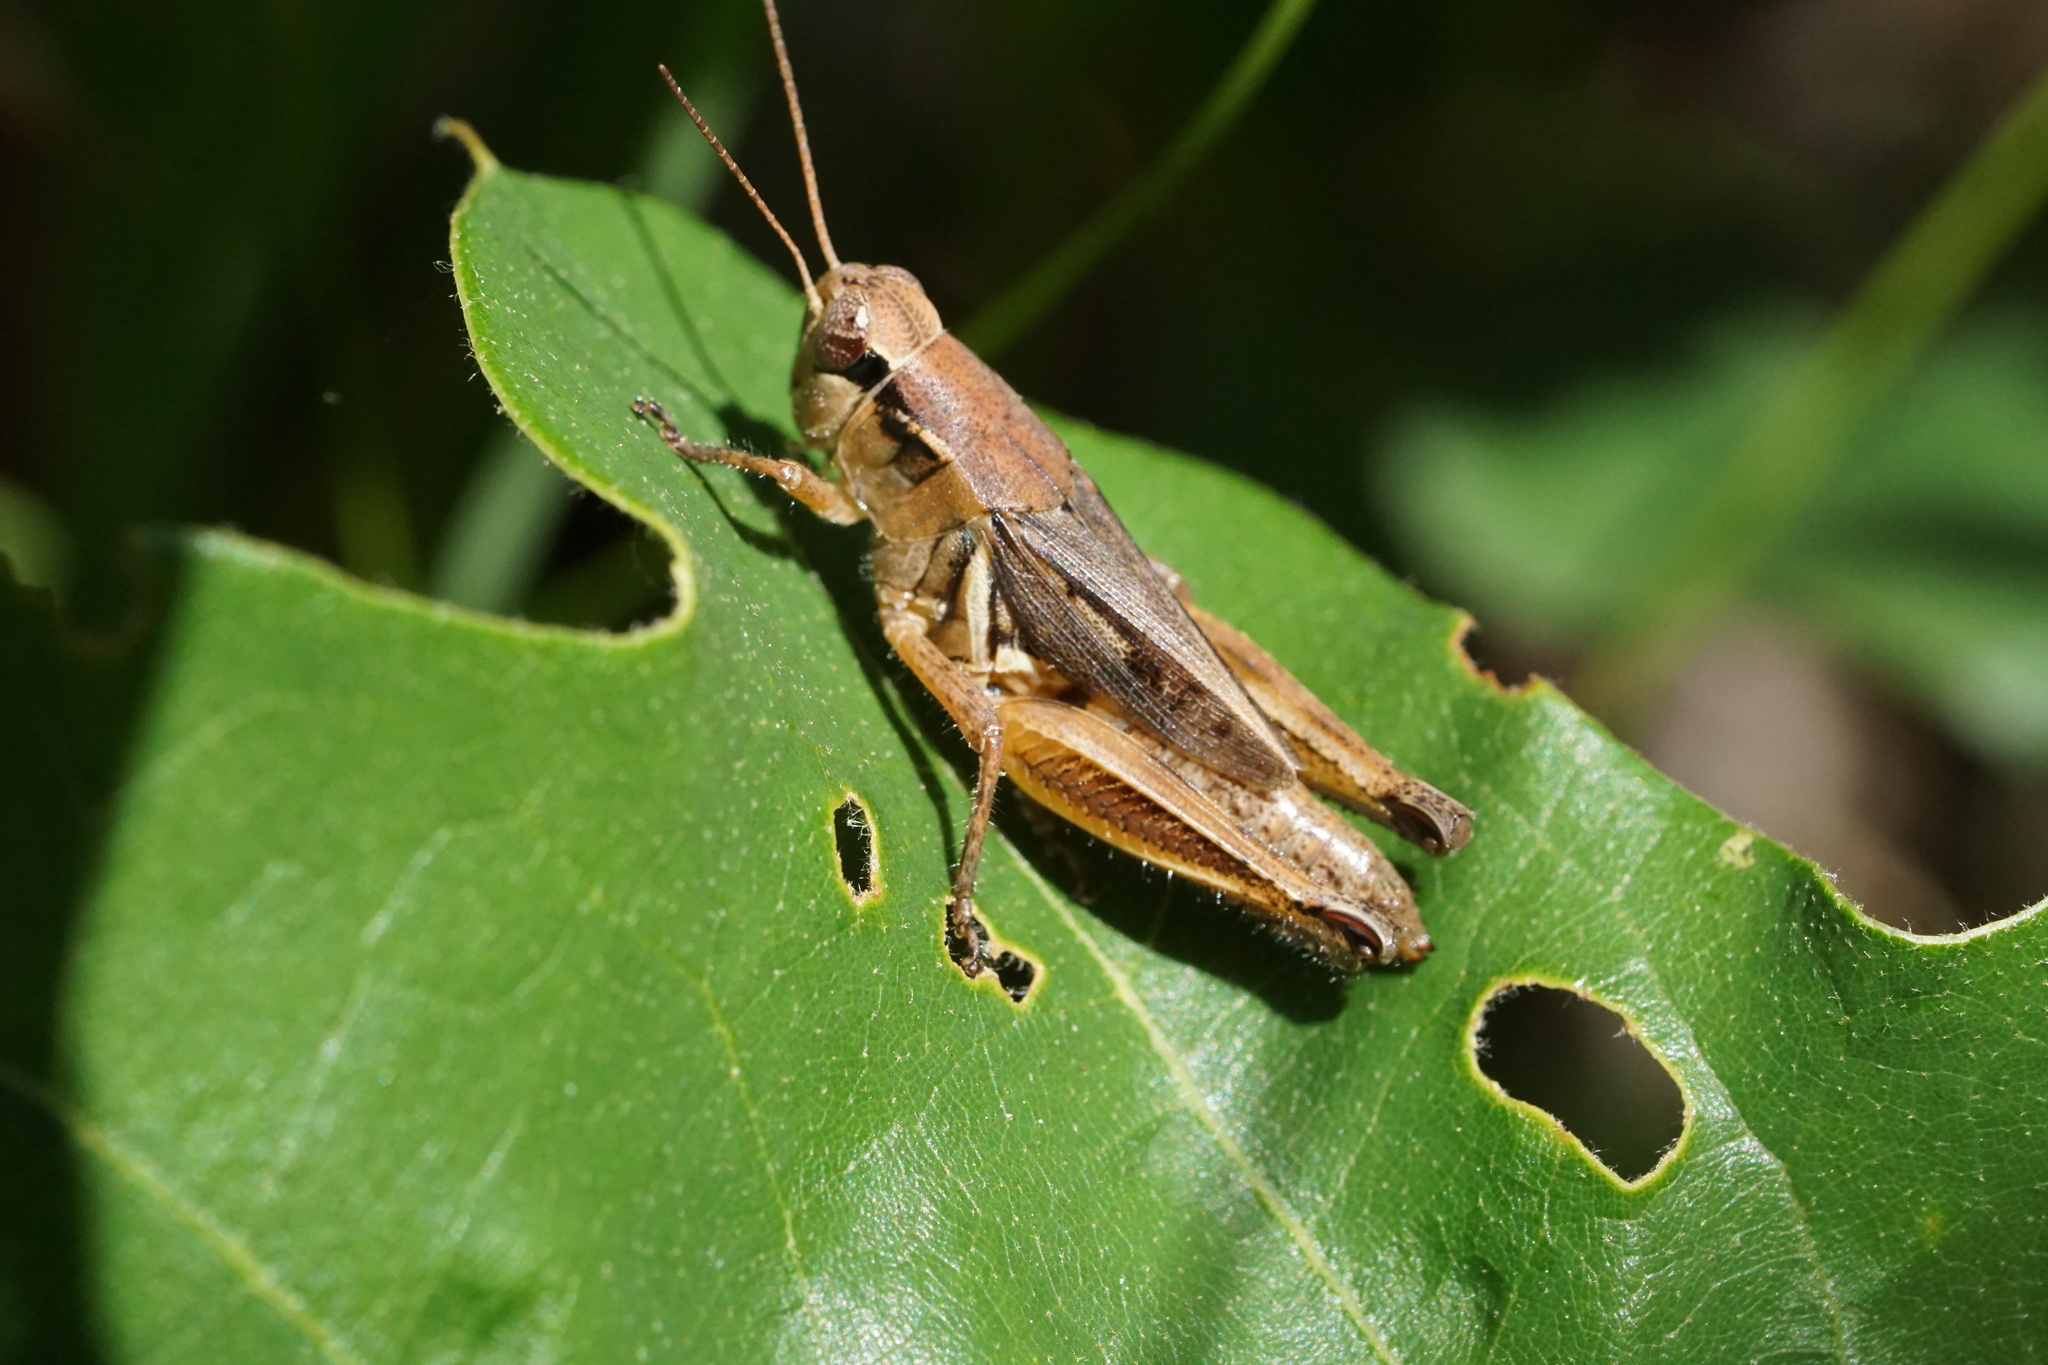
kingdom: Animalia
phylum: Arthropoda
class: Insecta
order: Orthoptera
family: Acrididae
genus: Melanoplus
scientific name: Melanoplus fasciatus
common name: Huckleberry locust
